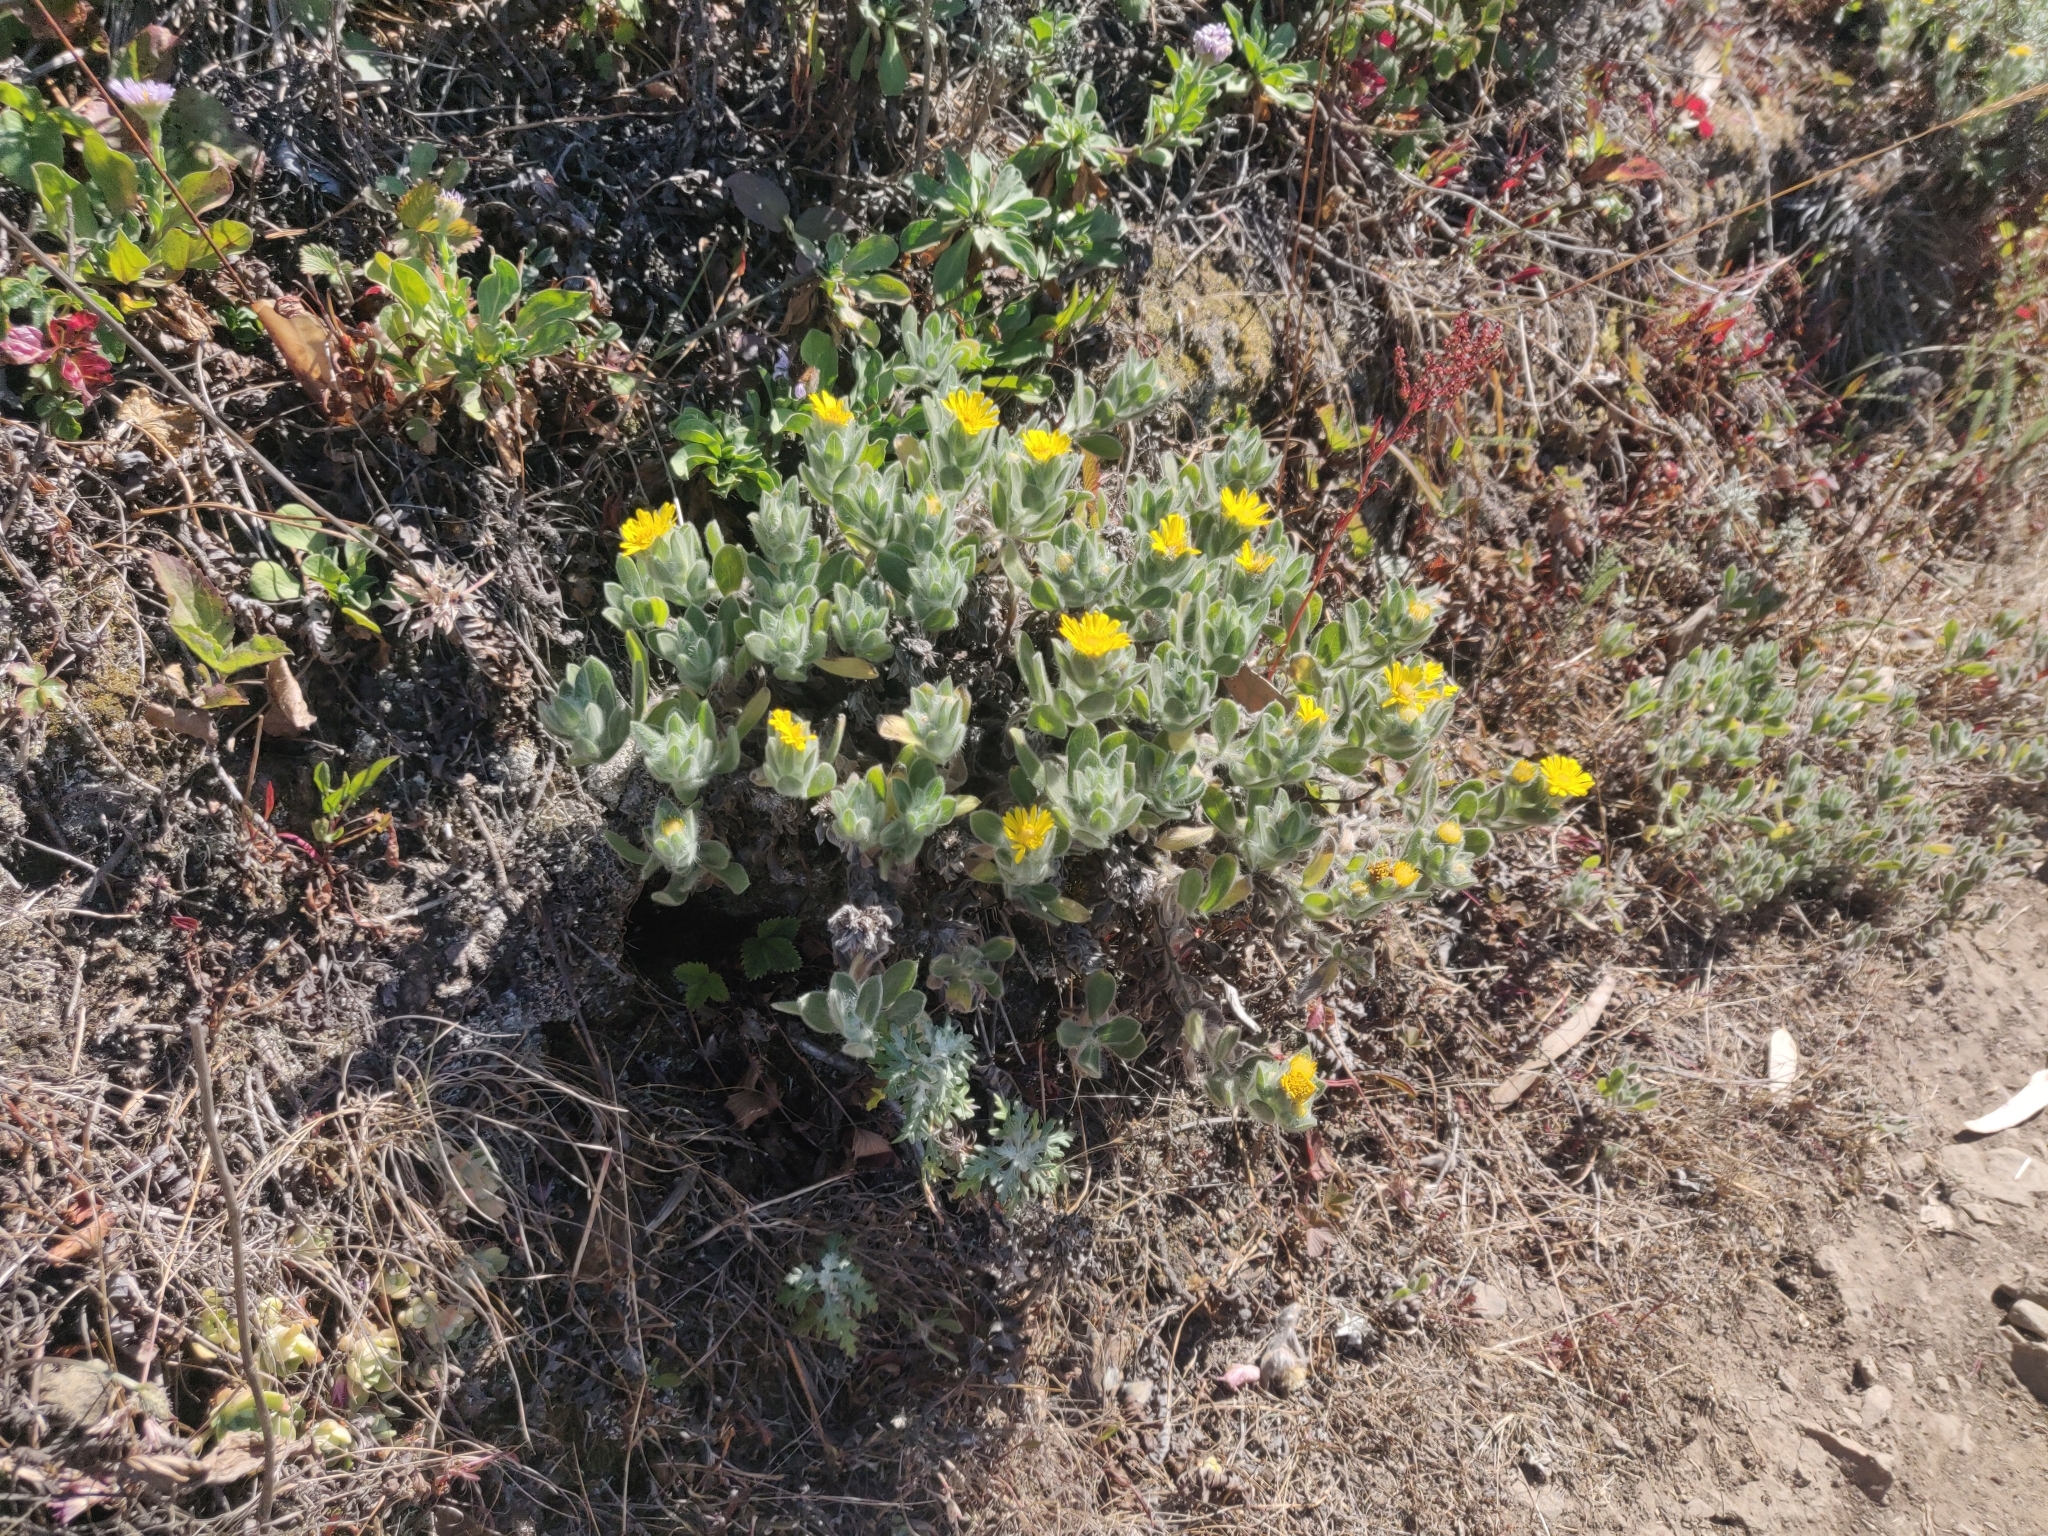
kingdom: Plantae
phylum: Tracheophyta
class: Magnoliopsida
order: Asterales
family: Asteraceae
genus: Heterotheca
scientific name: Heterotheca bolanderi
